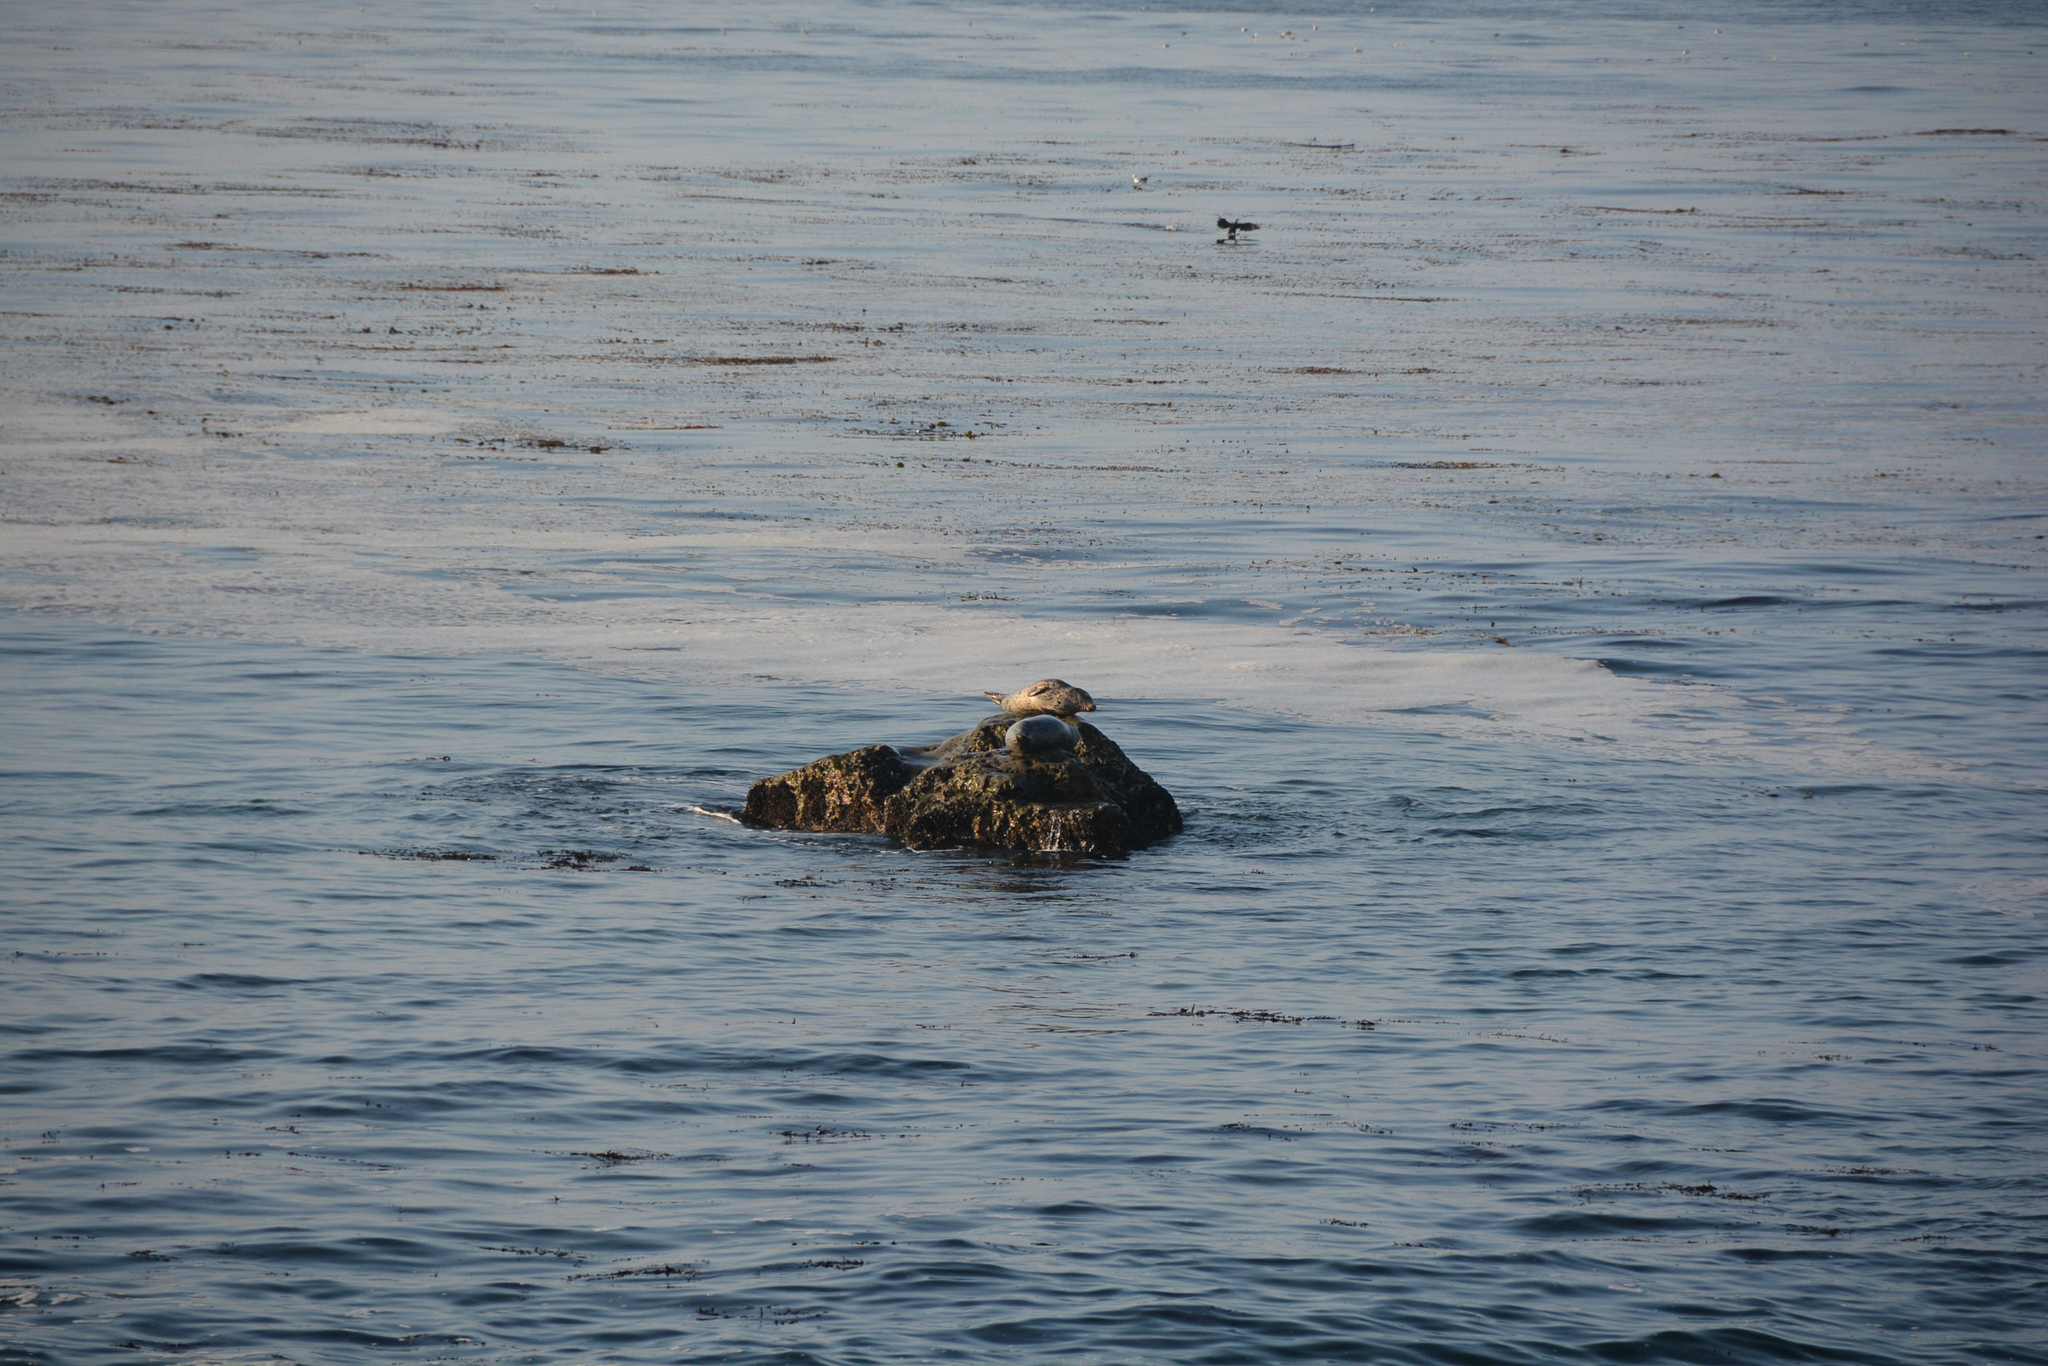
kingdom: Animalia
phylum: Chordata
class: Mammalia
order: Carnivora
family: Phocidae
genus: Phoca
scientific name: Phoca vitulina
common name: Harbor seal
